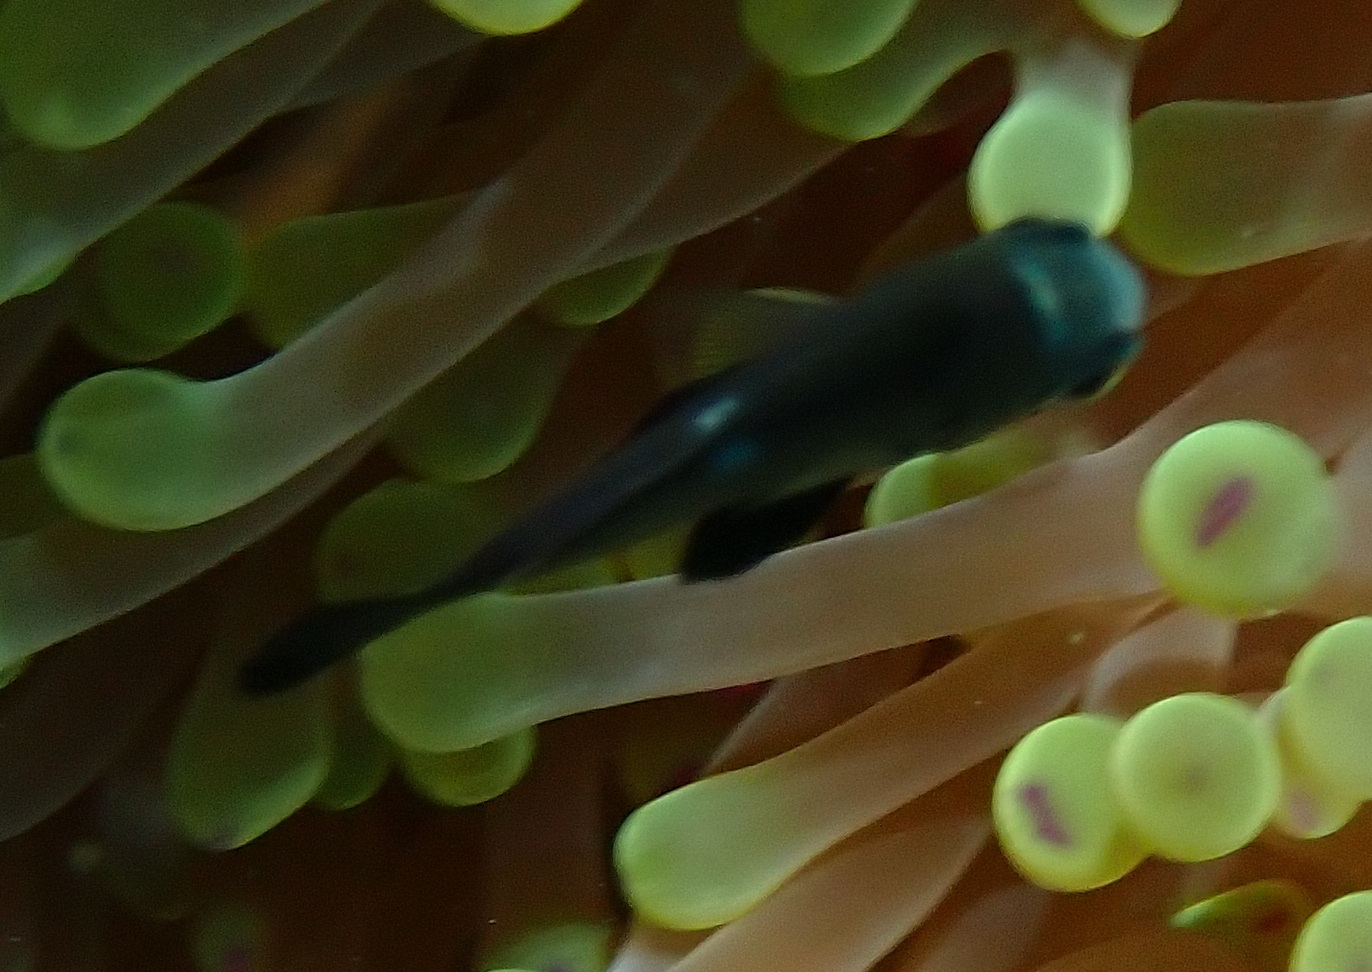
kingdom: Animalia
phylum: Chordata
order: Perciformes
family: Pomacentridae
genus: Dascyllus
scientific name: Dascyllus trimaculatus
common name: Threespot dascyllus
